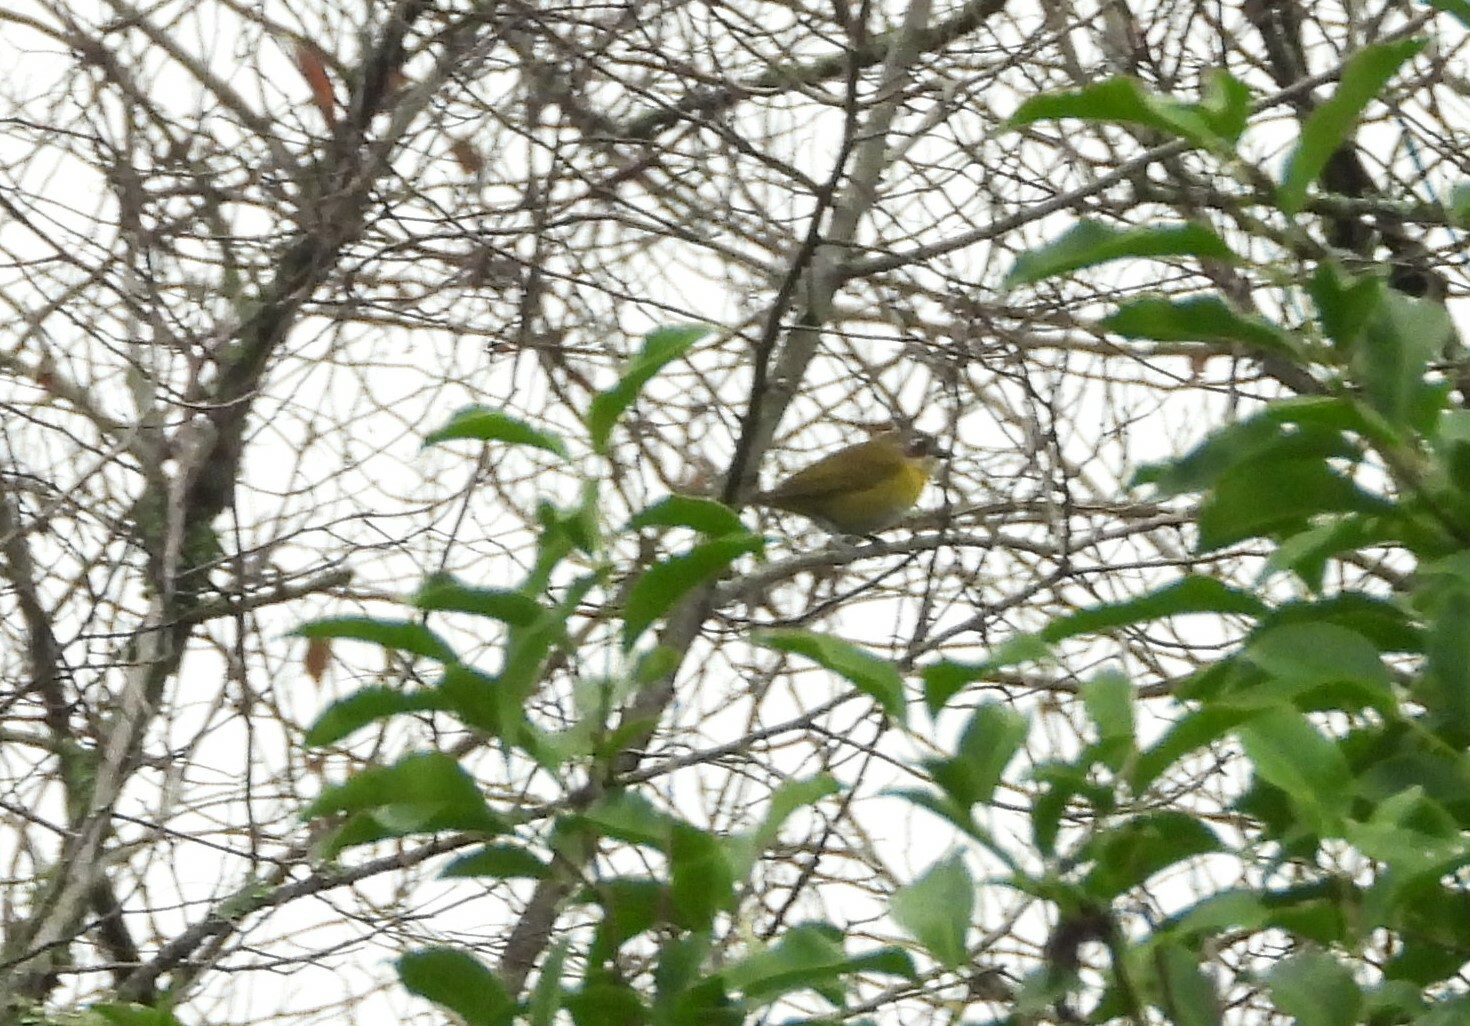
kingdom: Animalia
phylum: Chordata
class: Aves
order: Passeriformes
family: Passerellidae
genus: Chlorospingus
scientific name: Chlorospingus flavopectus
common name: Common chlorospingus
